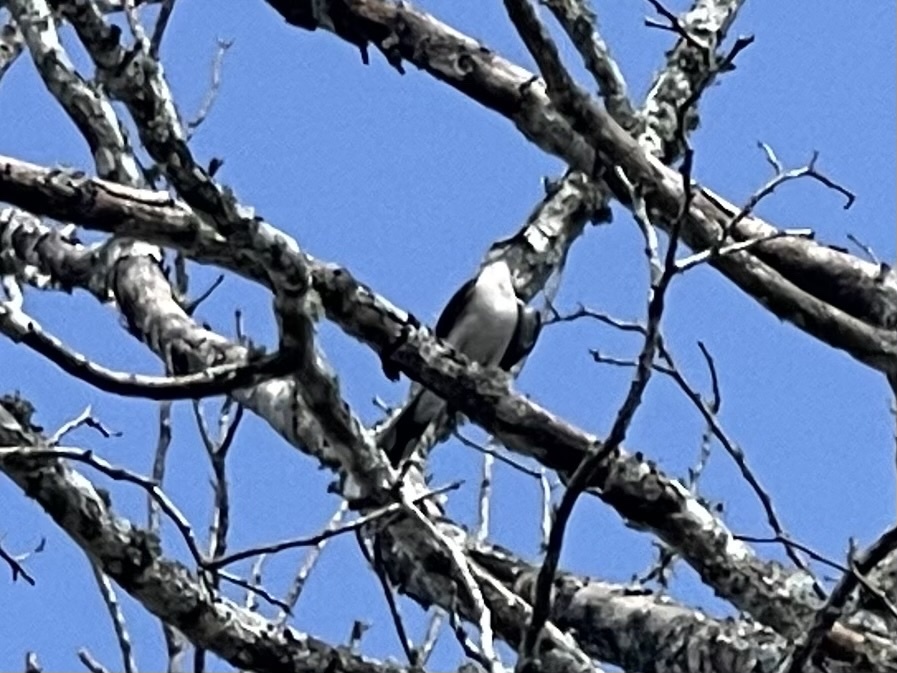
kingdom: Animalia
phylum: Chordata
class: Aves
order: Passeriformes
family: Mimidae
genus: Mimus
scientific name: Mimus gilvus
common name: Tropical mockingbird
